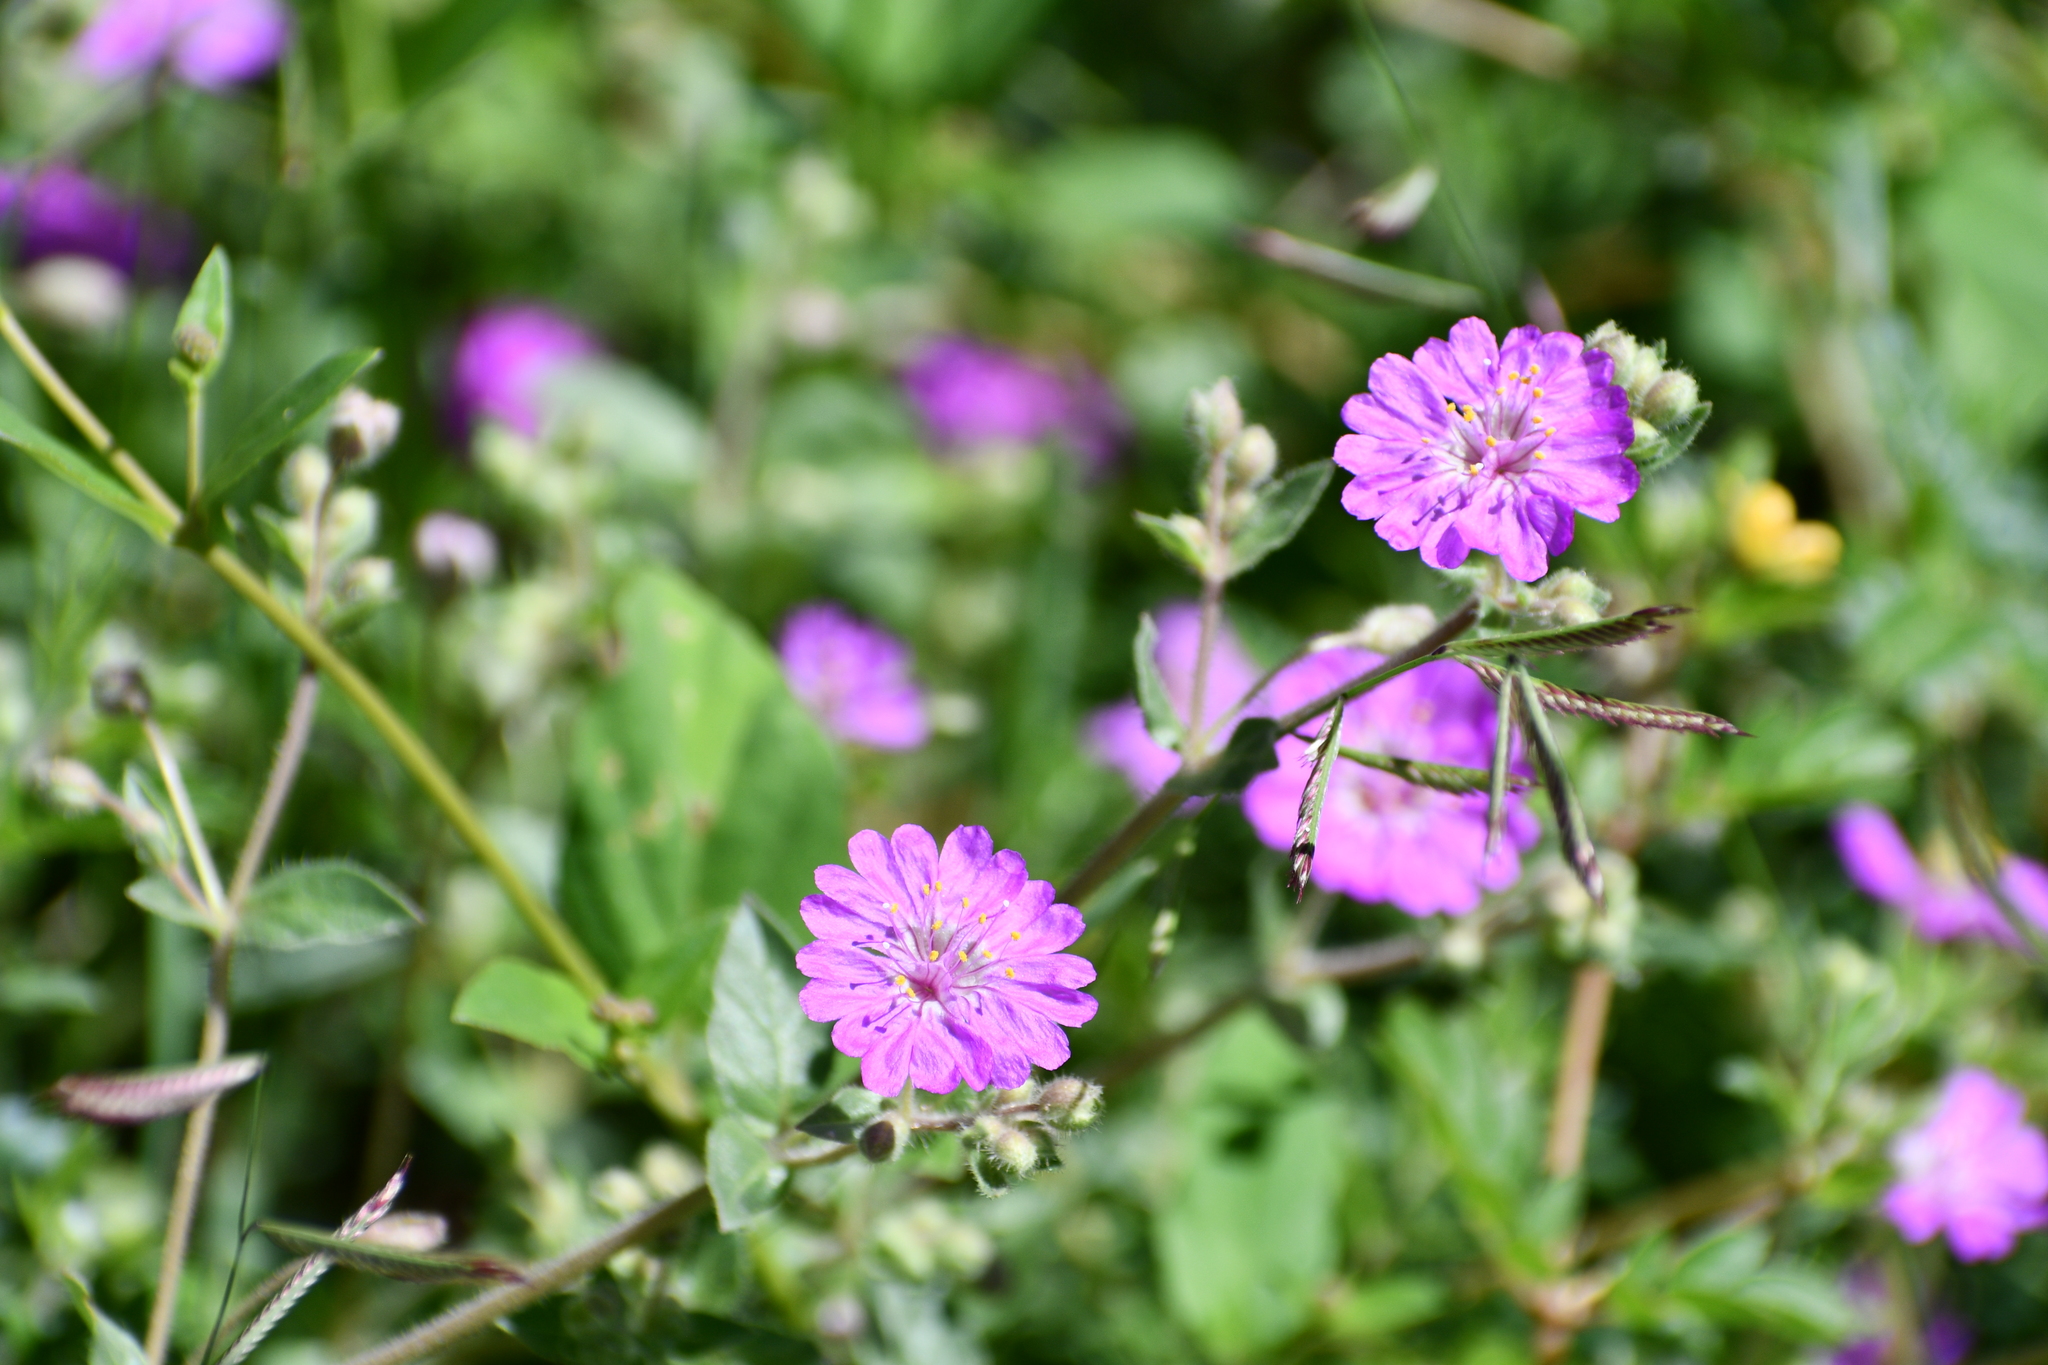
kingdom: Plantae
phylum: Tracheophyta
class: Magnoliopsida
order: Caryophyllales
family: Nyctaginaceae
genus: Allionia
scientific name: Allionia incarnata
